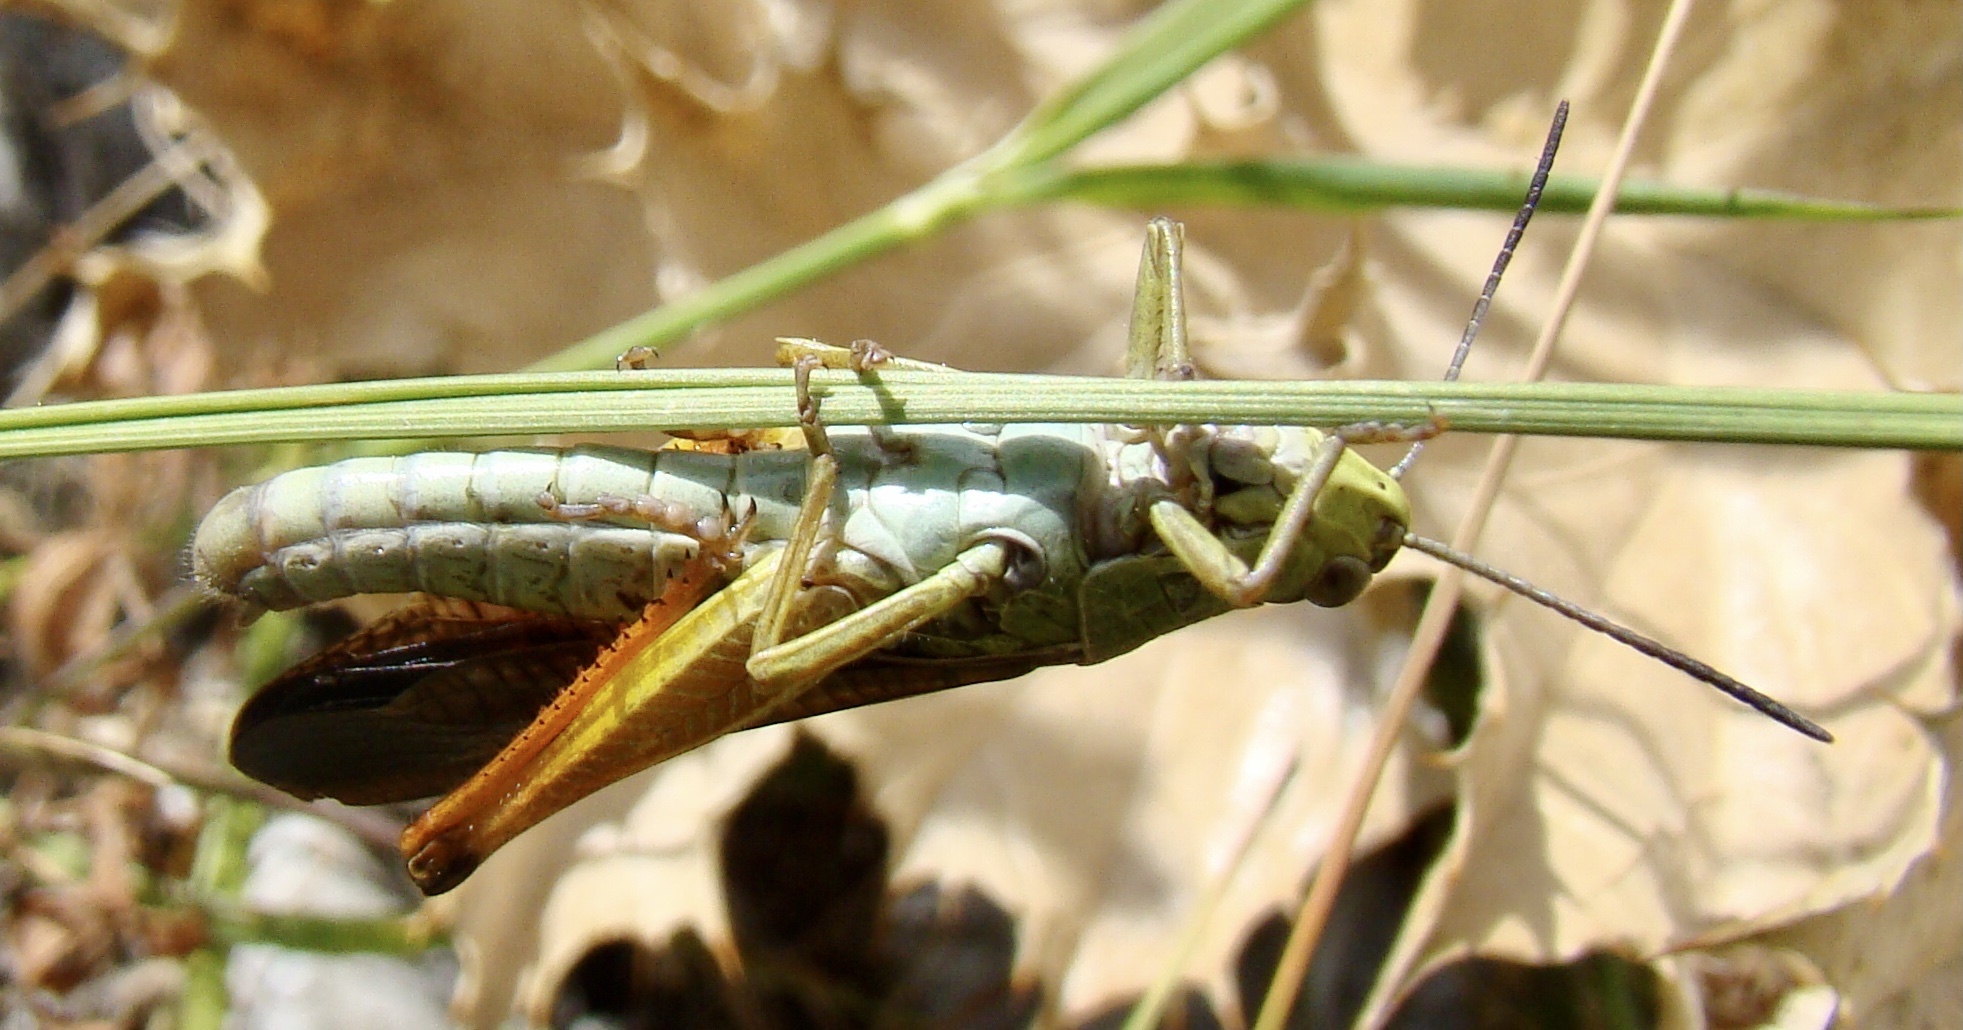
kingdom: Animalia
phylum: Arthropoda
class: Insecta
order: Orthoptera
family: Acrididae
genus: Stauroderus
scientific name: Stauroderus scalaris
